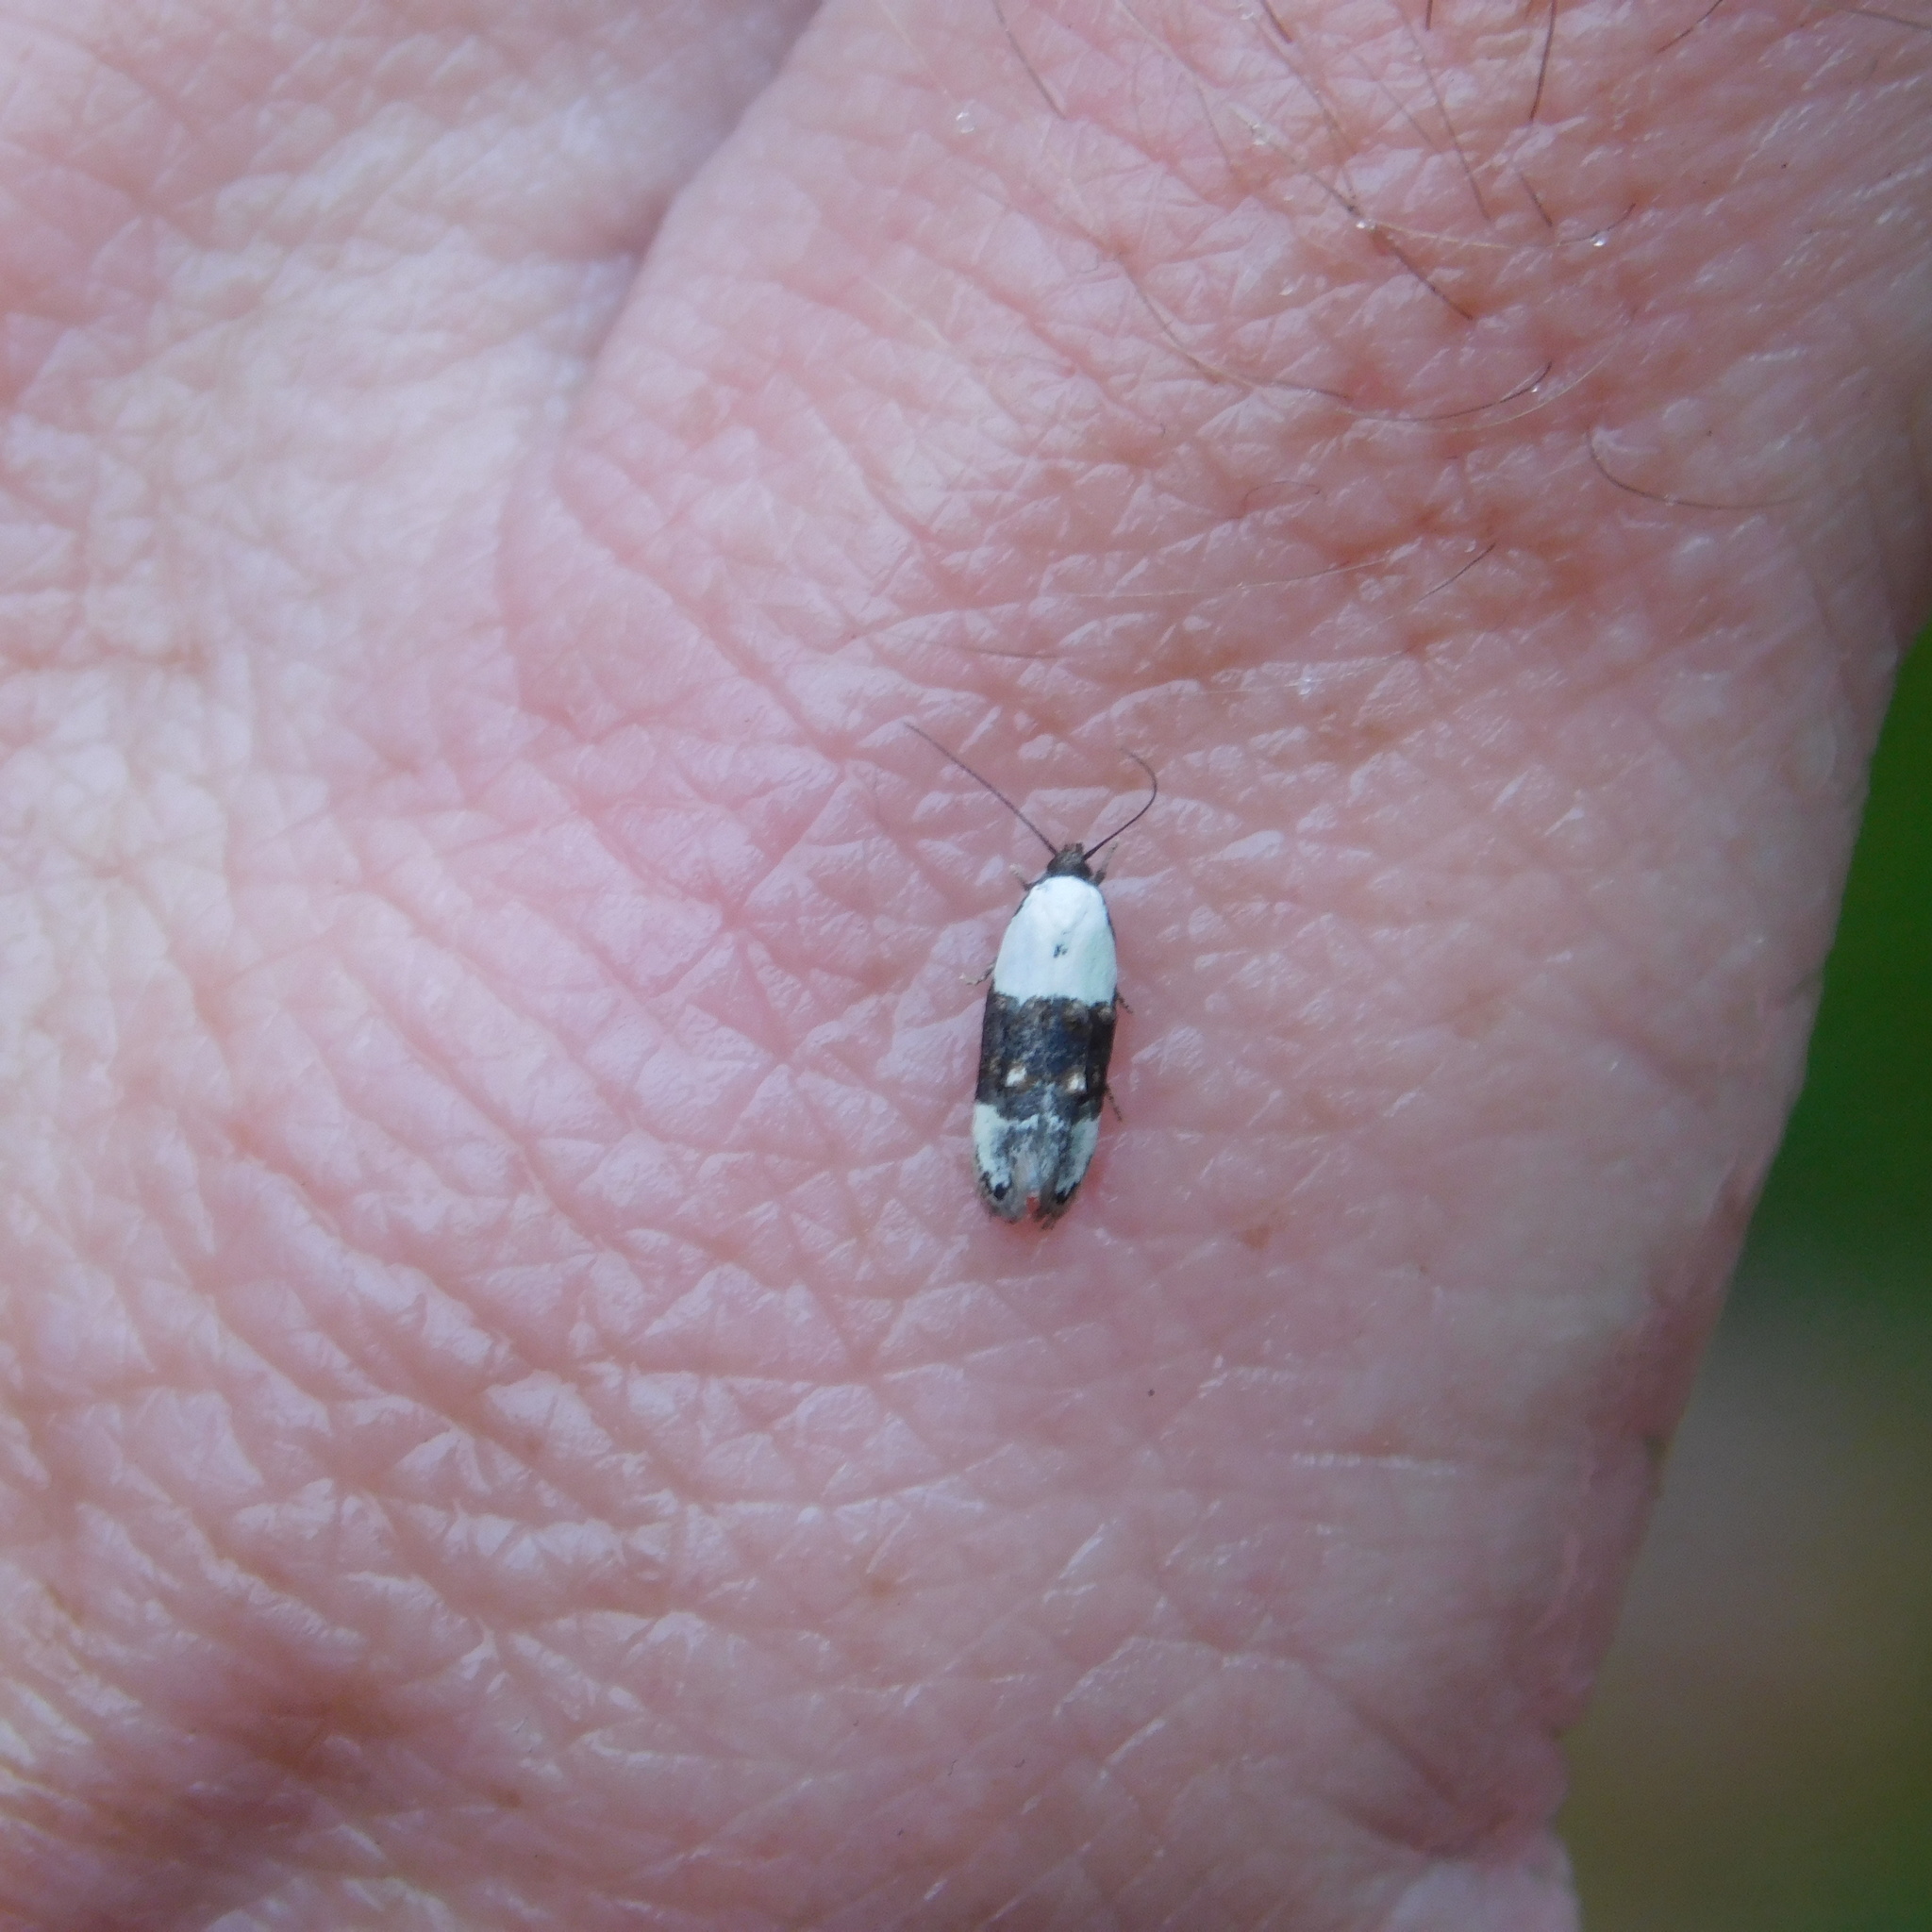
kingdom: Animalia
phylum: Arthropoda
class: Insecta
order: Lepidoptera
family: Oecophoridae
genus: Trachypepla
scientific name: Trachypepla amphileuca
